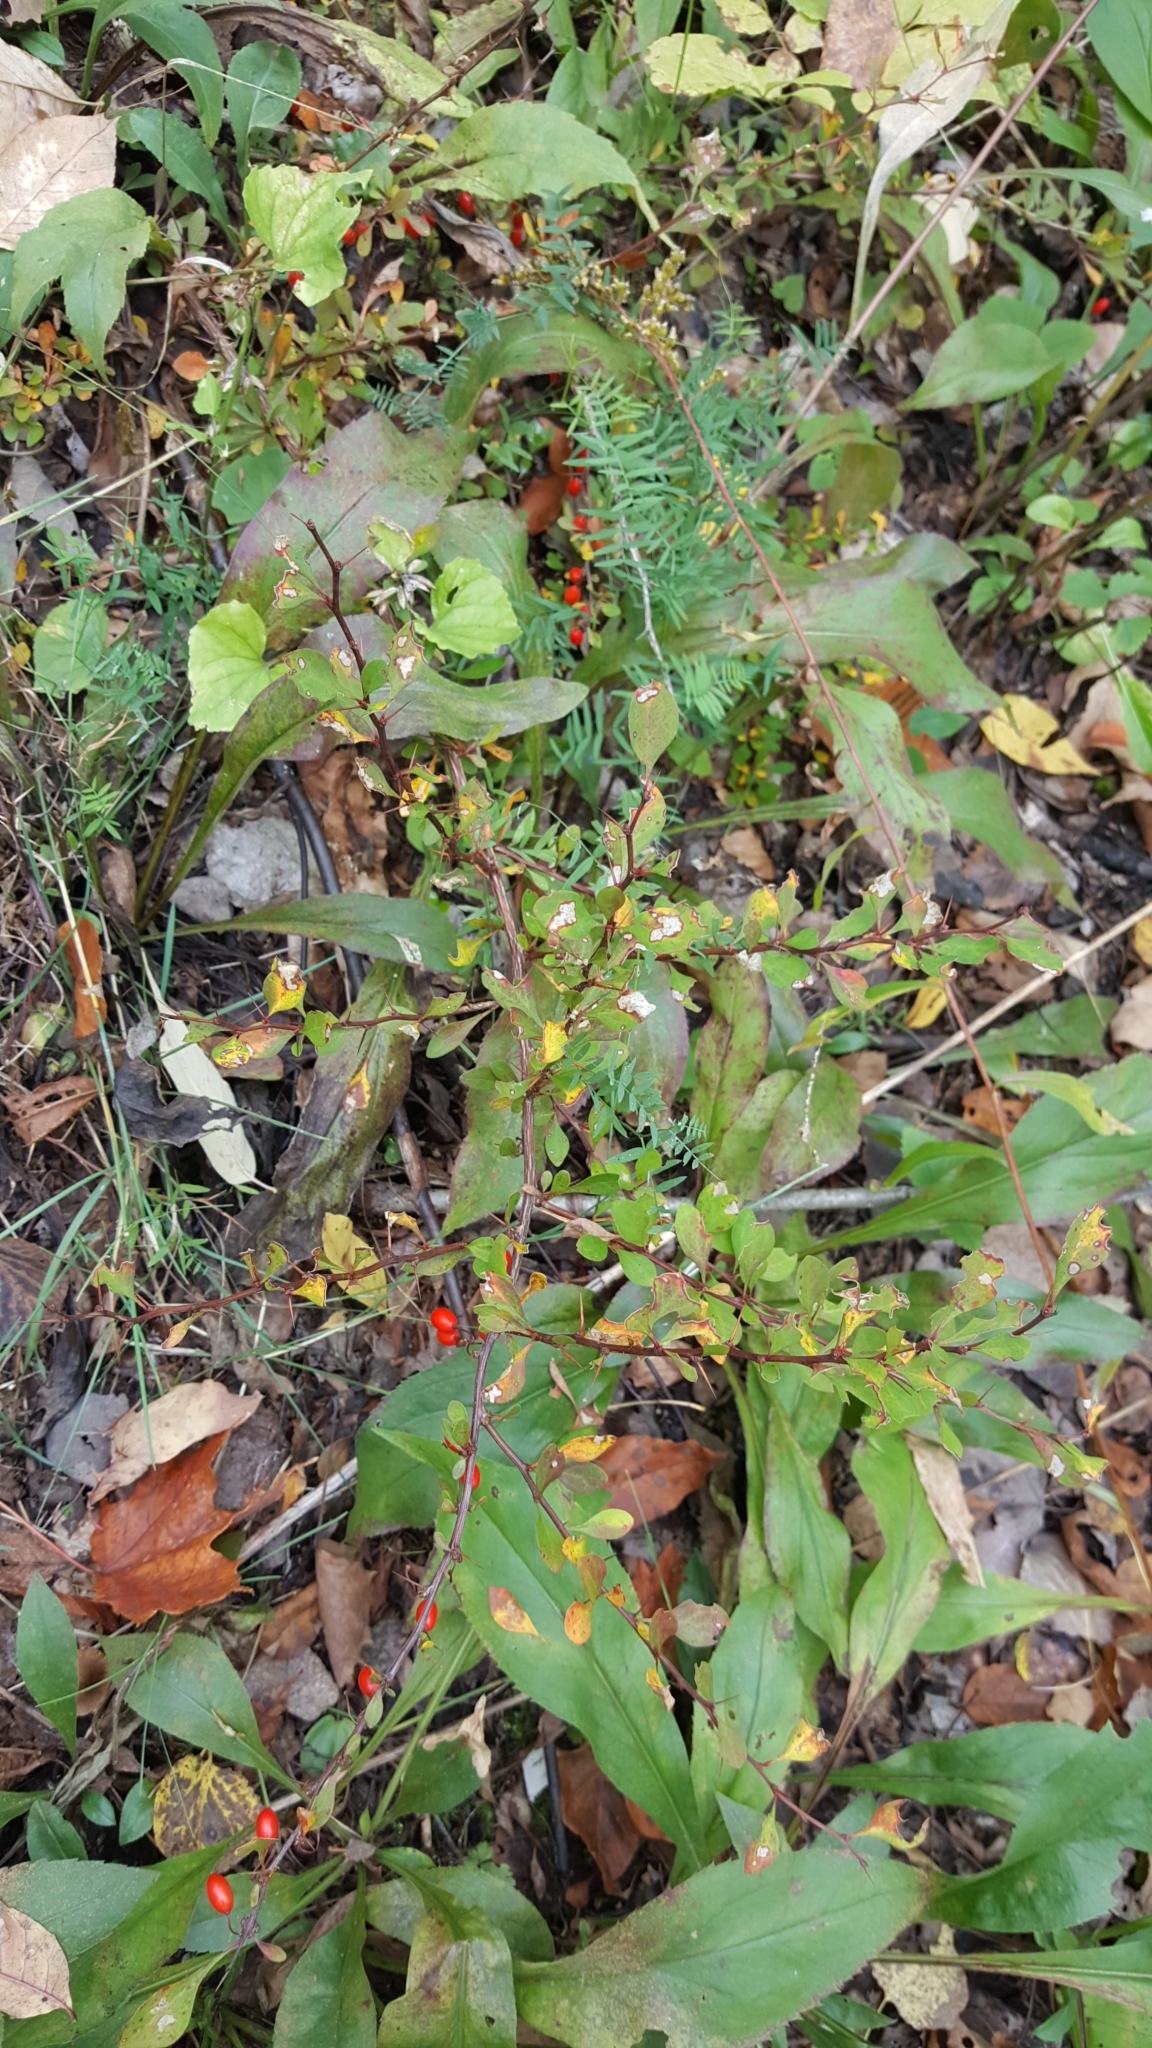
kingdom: Plantae
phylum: Tracheophyta
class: Magnoliopsida
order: Ranunculales
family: Berberidaceae
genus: Berberis
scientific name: Berberis thunbergii
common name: Japanese barberry
